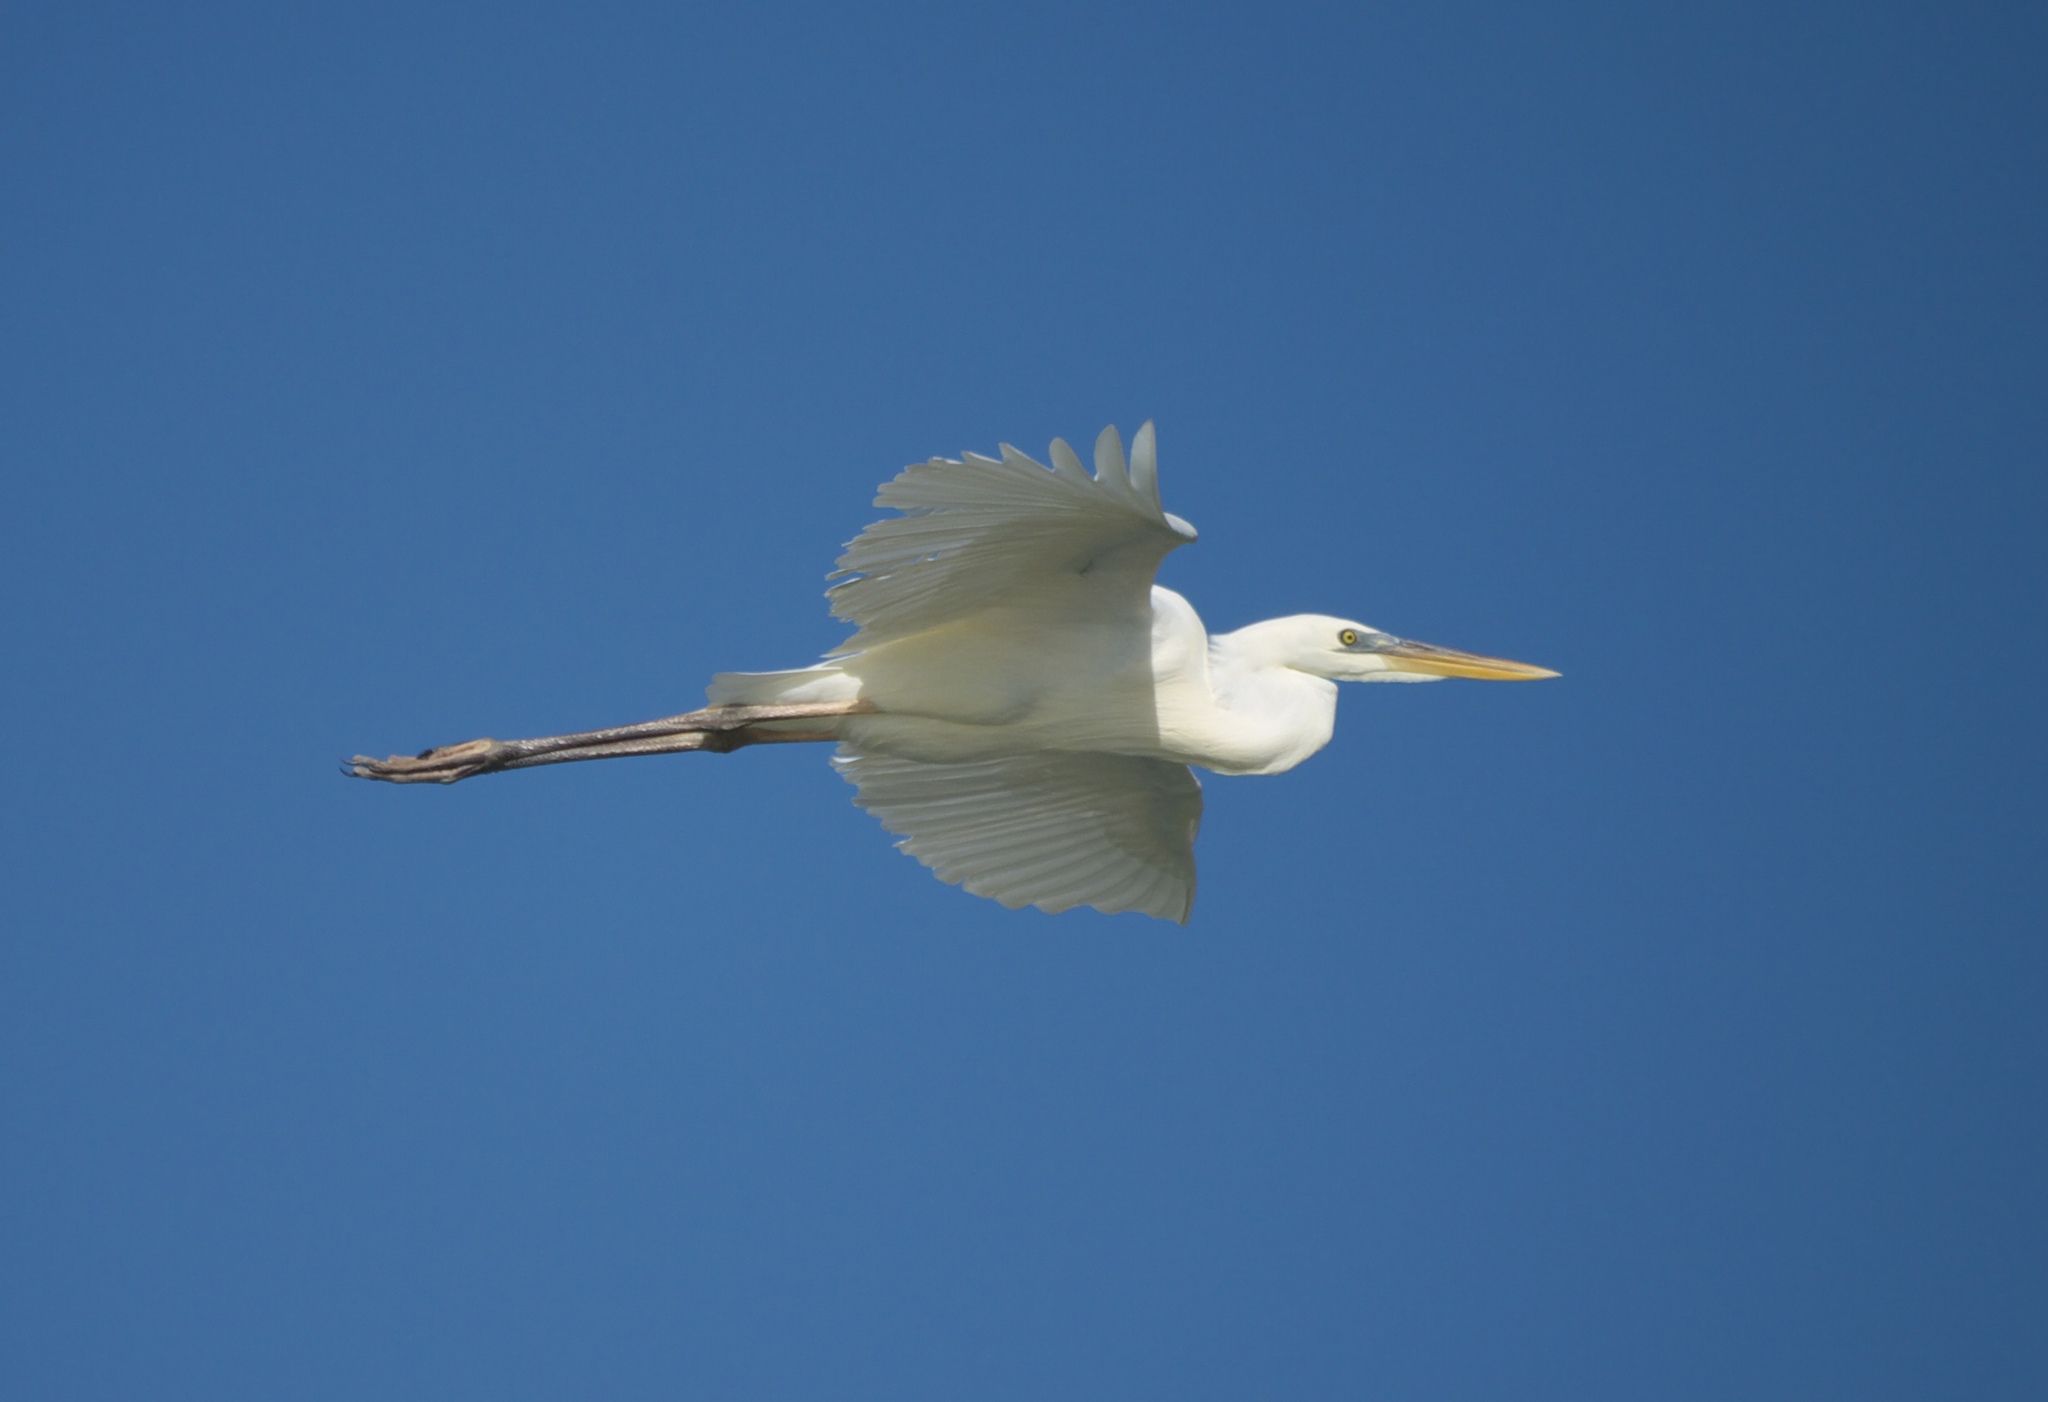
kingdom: Animalia
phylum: Chordata
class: Aves
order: Pelecaniformes
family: Ardeidae
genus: Ardea
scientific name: Ardea herodias
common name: Great blue heron
